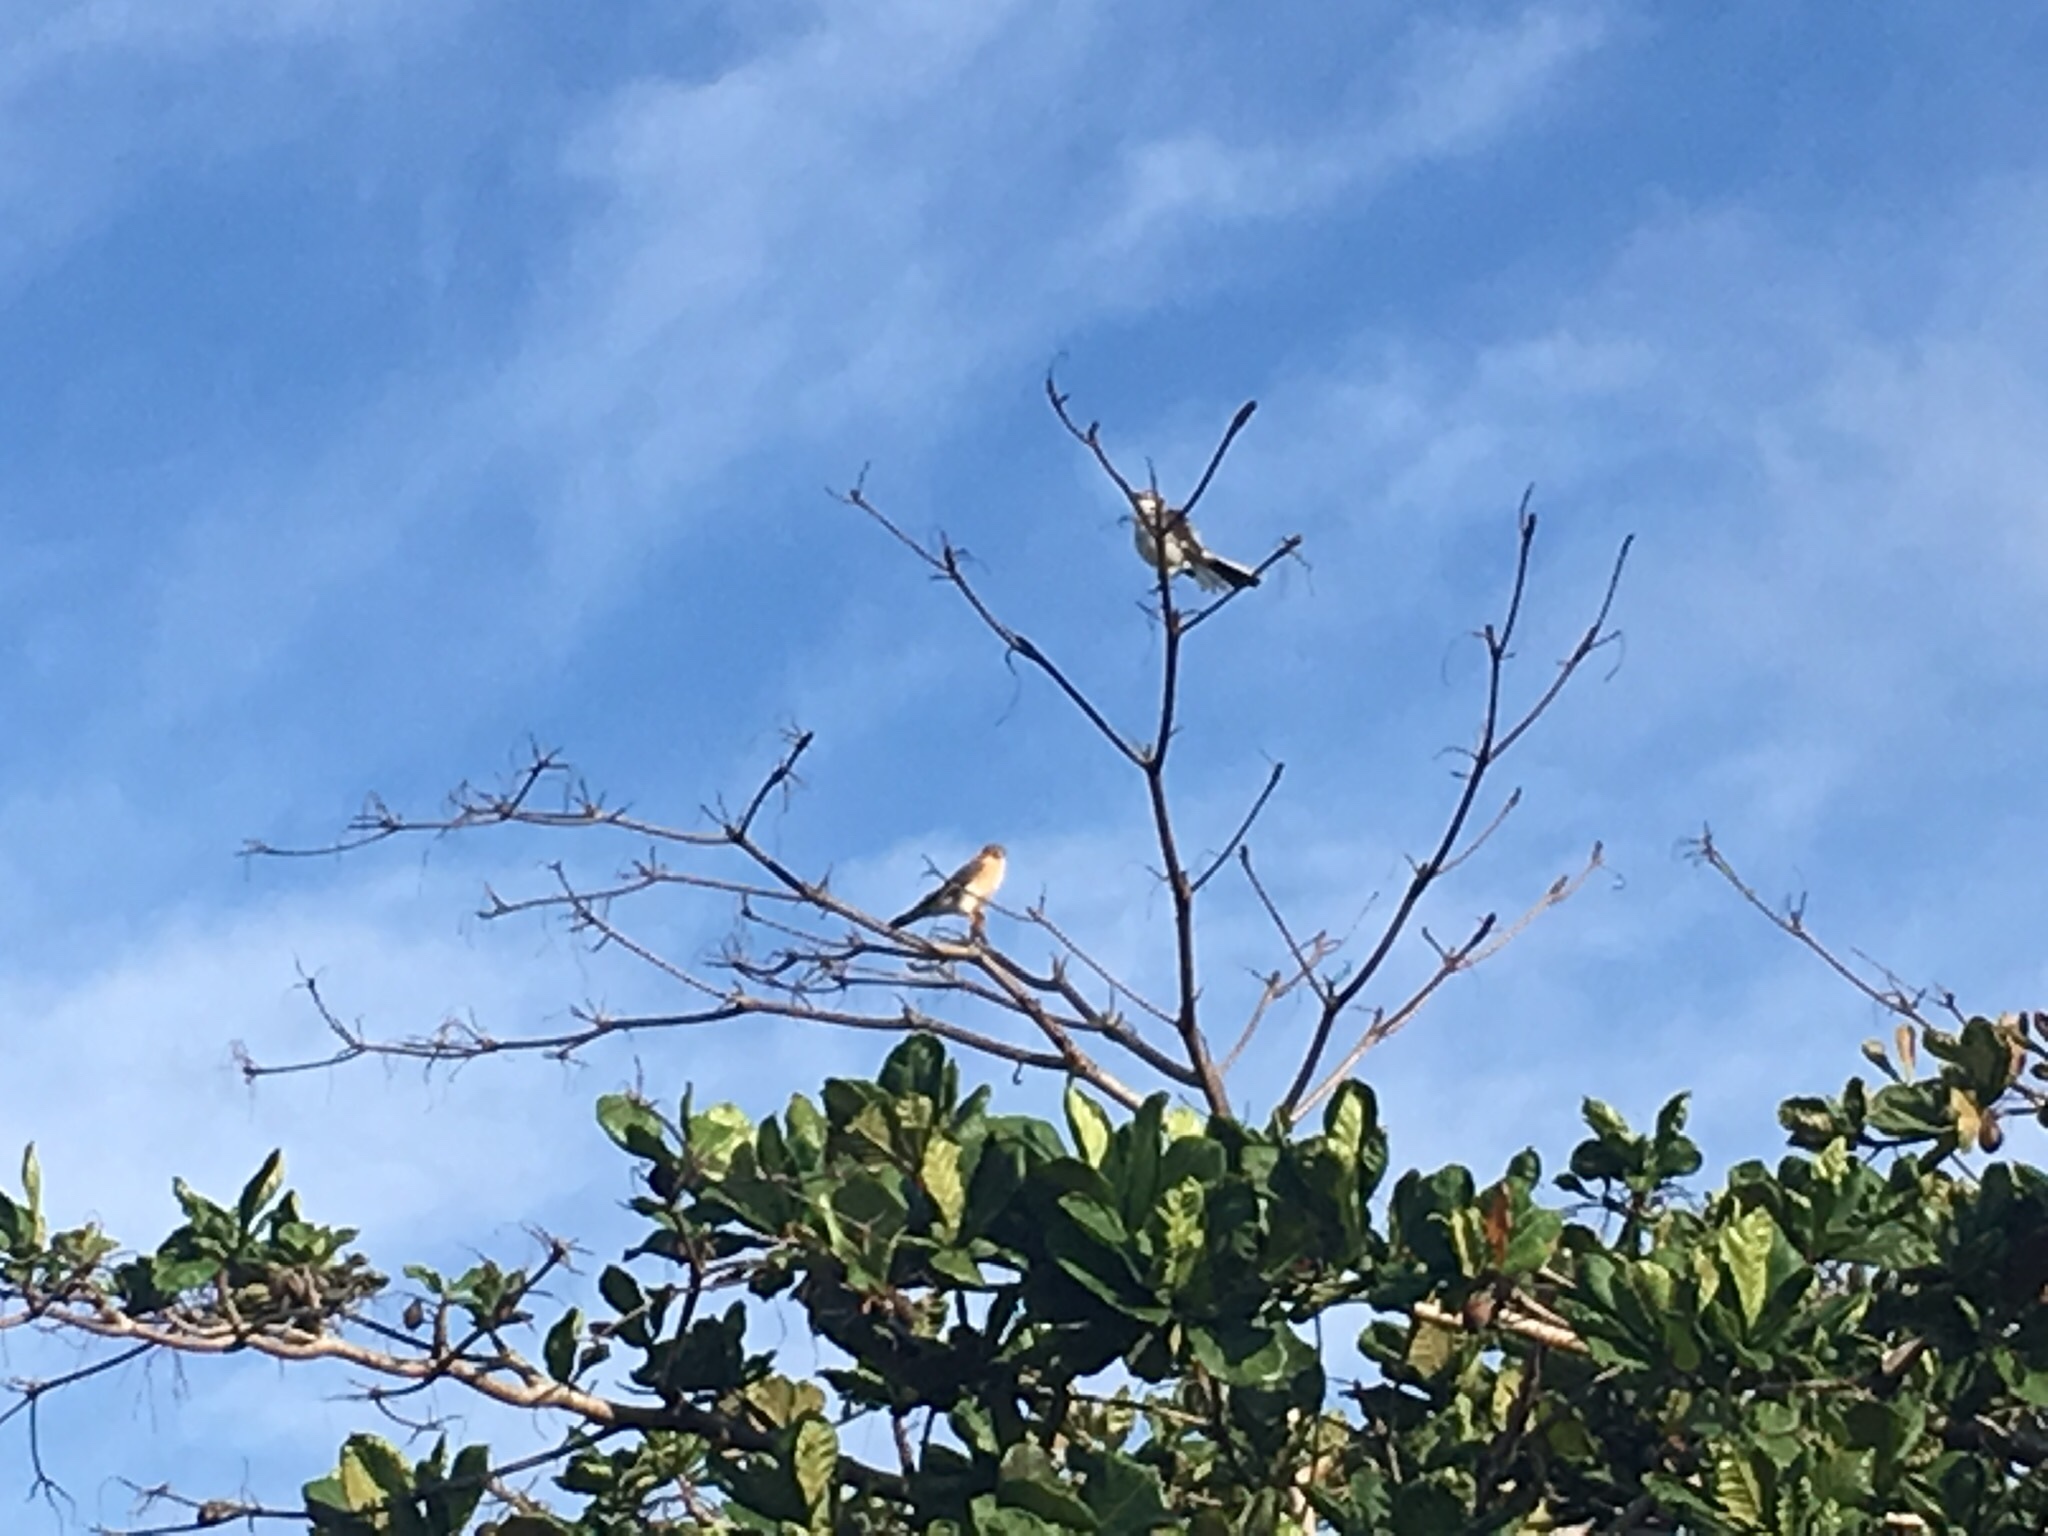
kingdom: Animalia
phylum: Chordata
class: Aves
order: Falconiformes
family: Falconidae
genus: Falco
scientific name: Falco sparverius
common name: American kestrel
